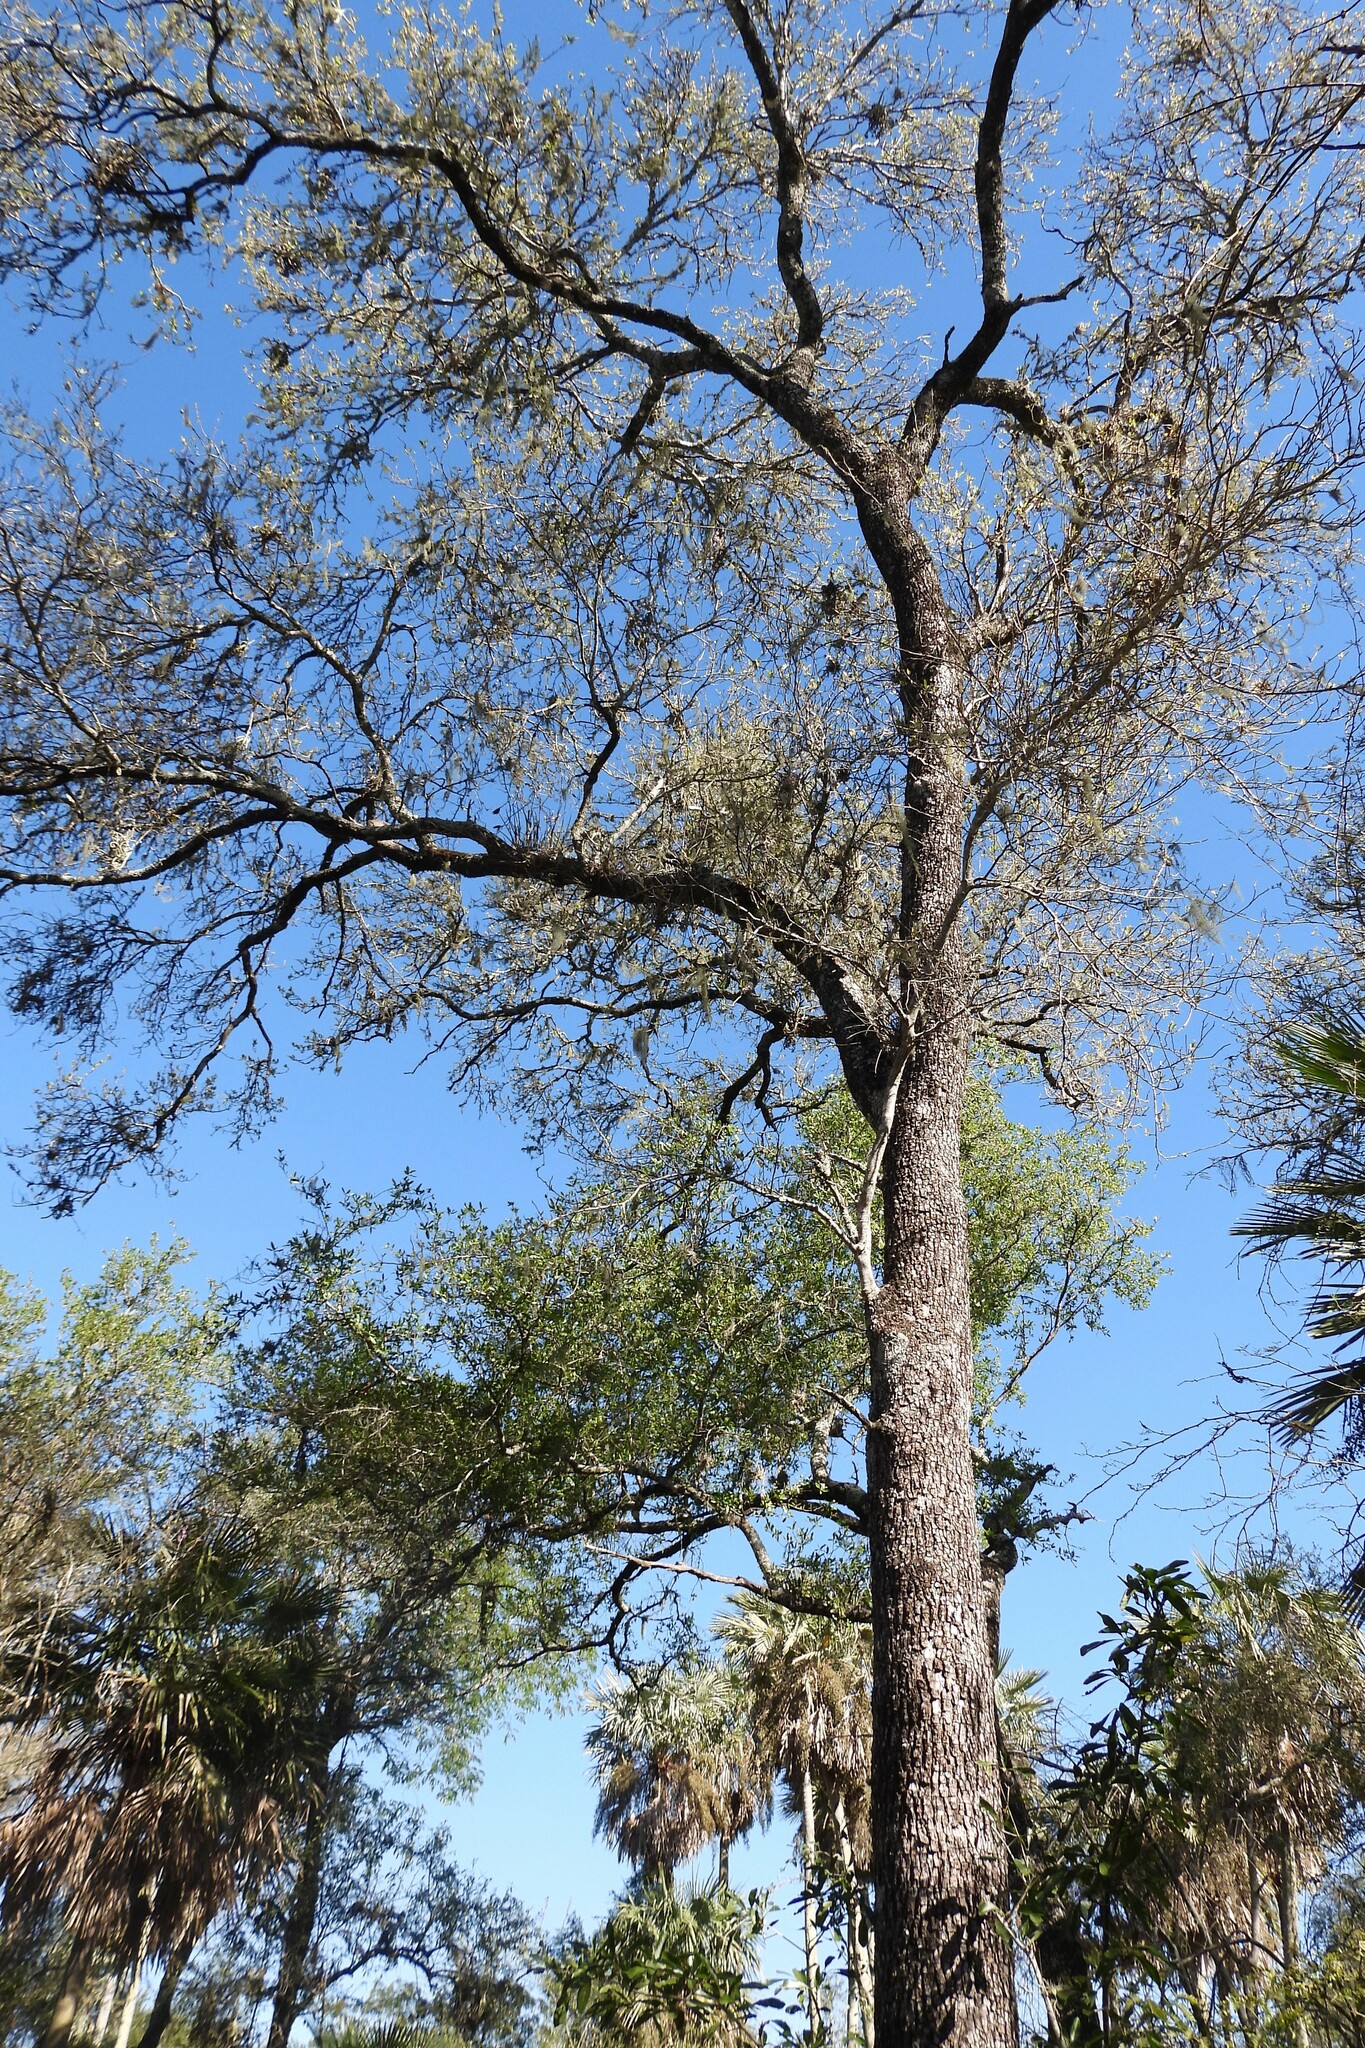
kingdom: Plantae
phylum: Tracheophyta
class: Magnoliopsida
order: Sapindales
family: Anacardiaceae
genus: Schinopsis
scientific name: Schinopsis balansae
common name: Red quebracho
